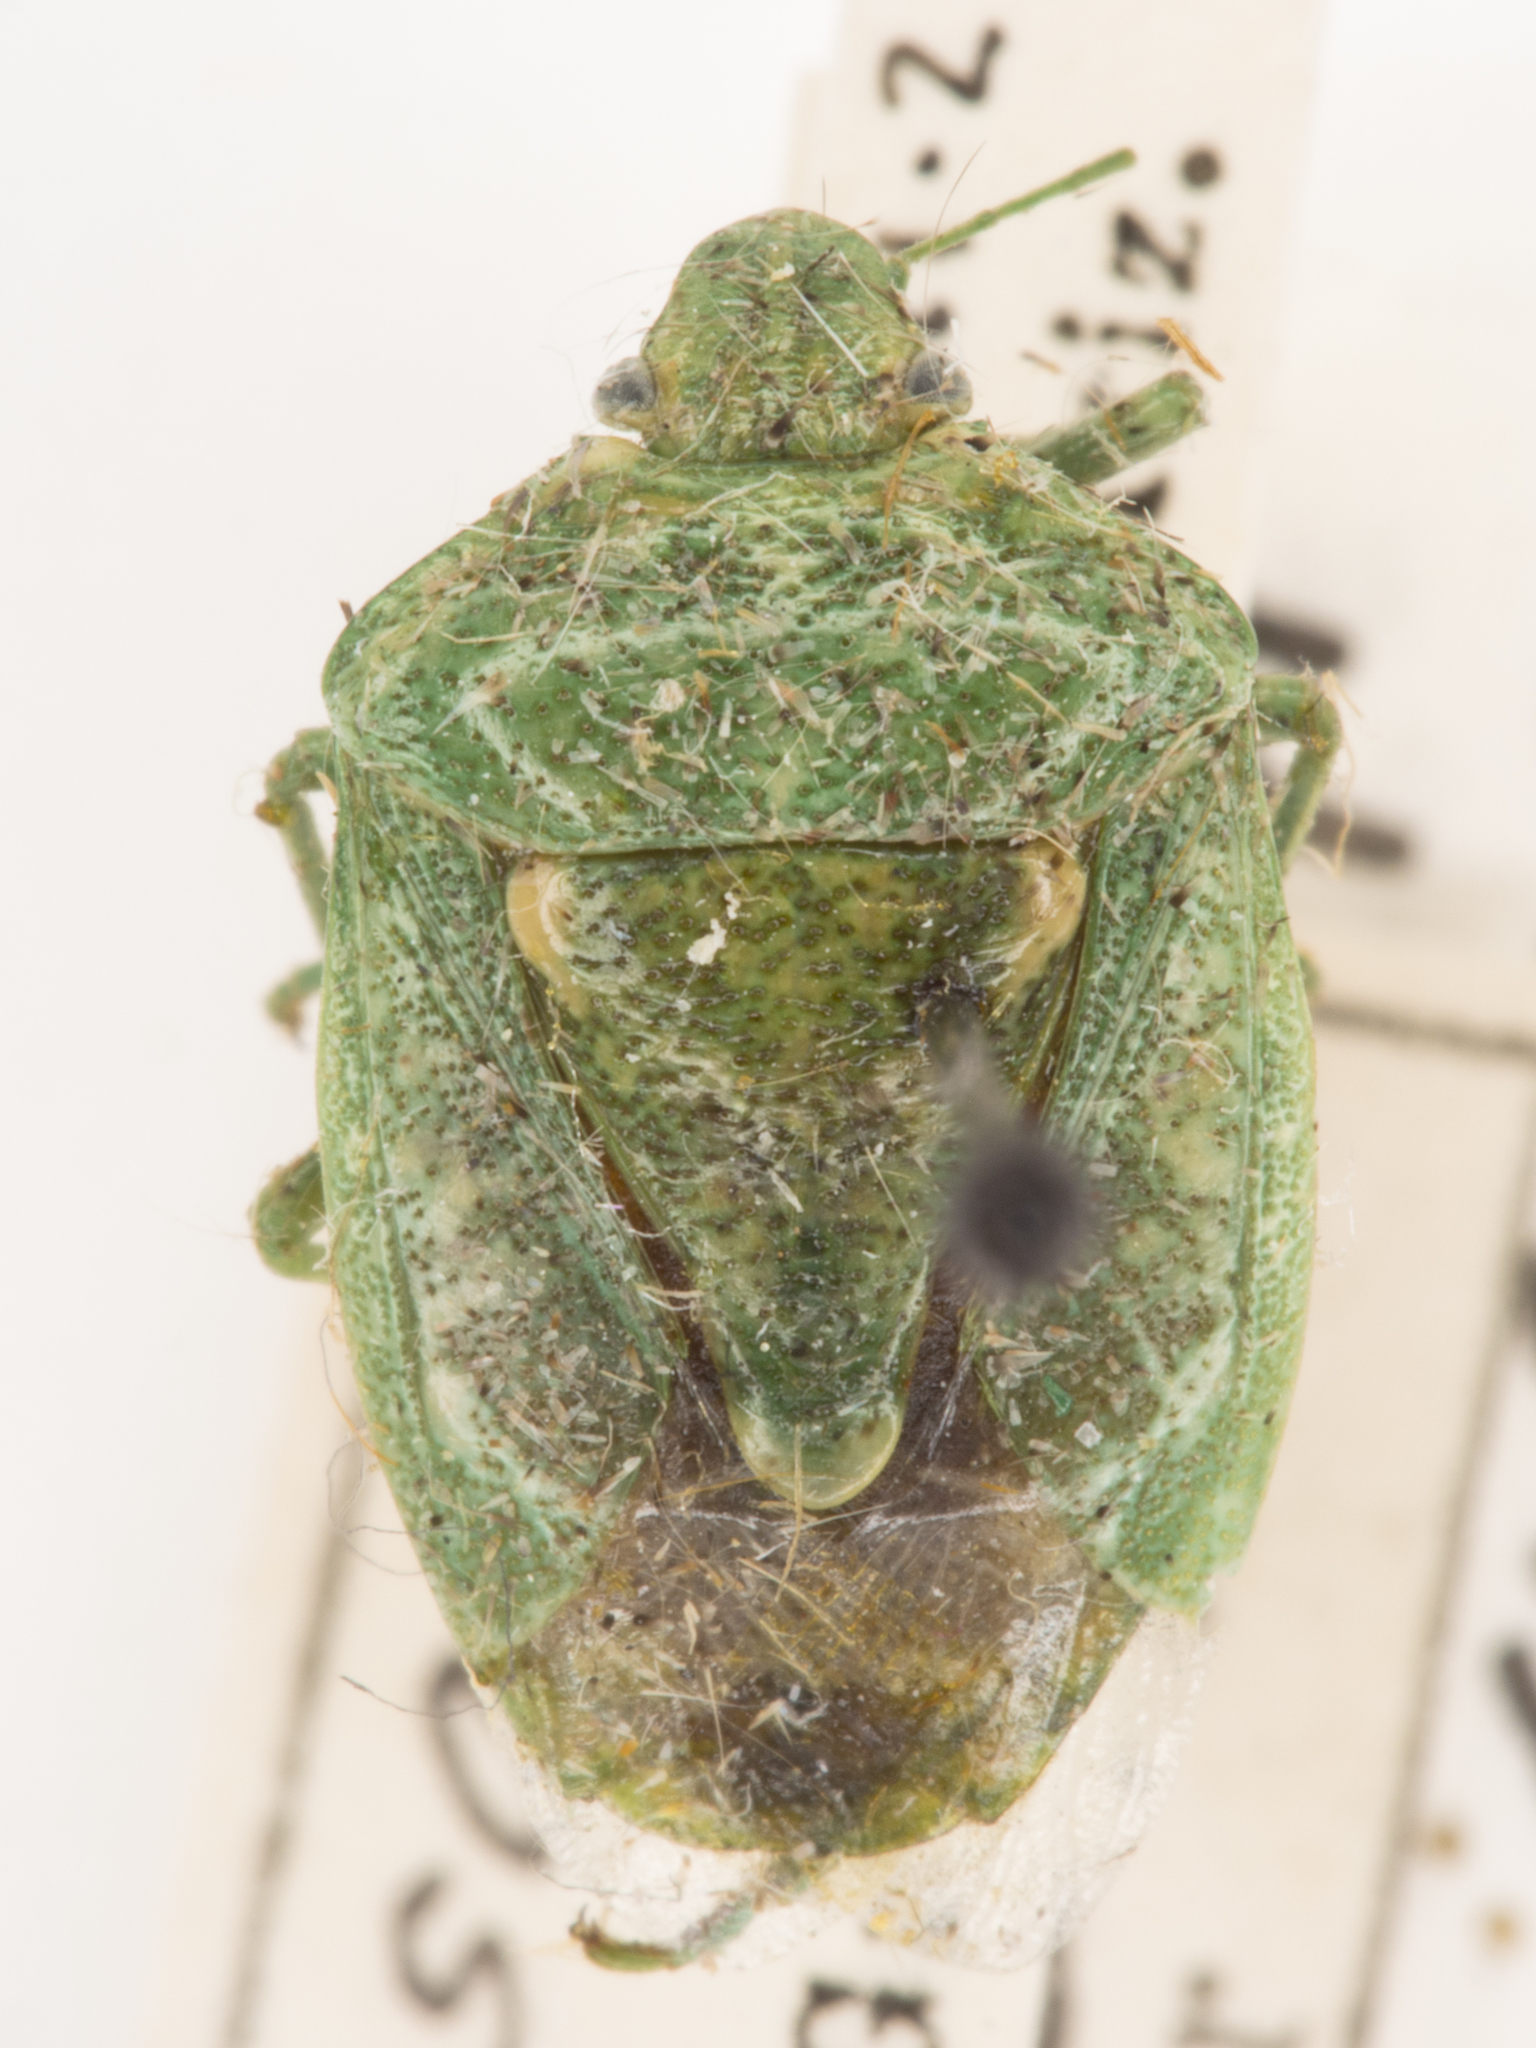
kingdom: Animalia
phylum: Arthropoda
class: Insecta
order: Hemiptera
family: Pentatomidae
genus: Banasa
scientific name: Banasa euchlora
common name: Cedar berry bug
